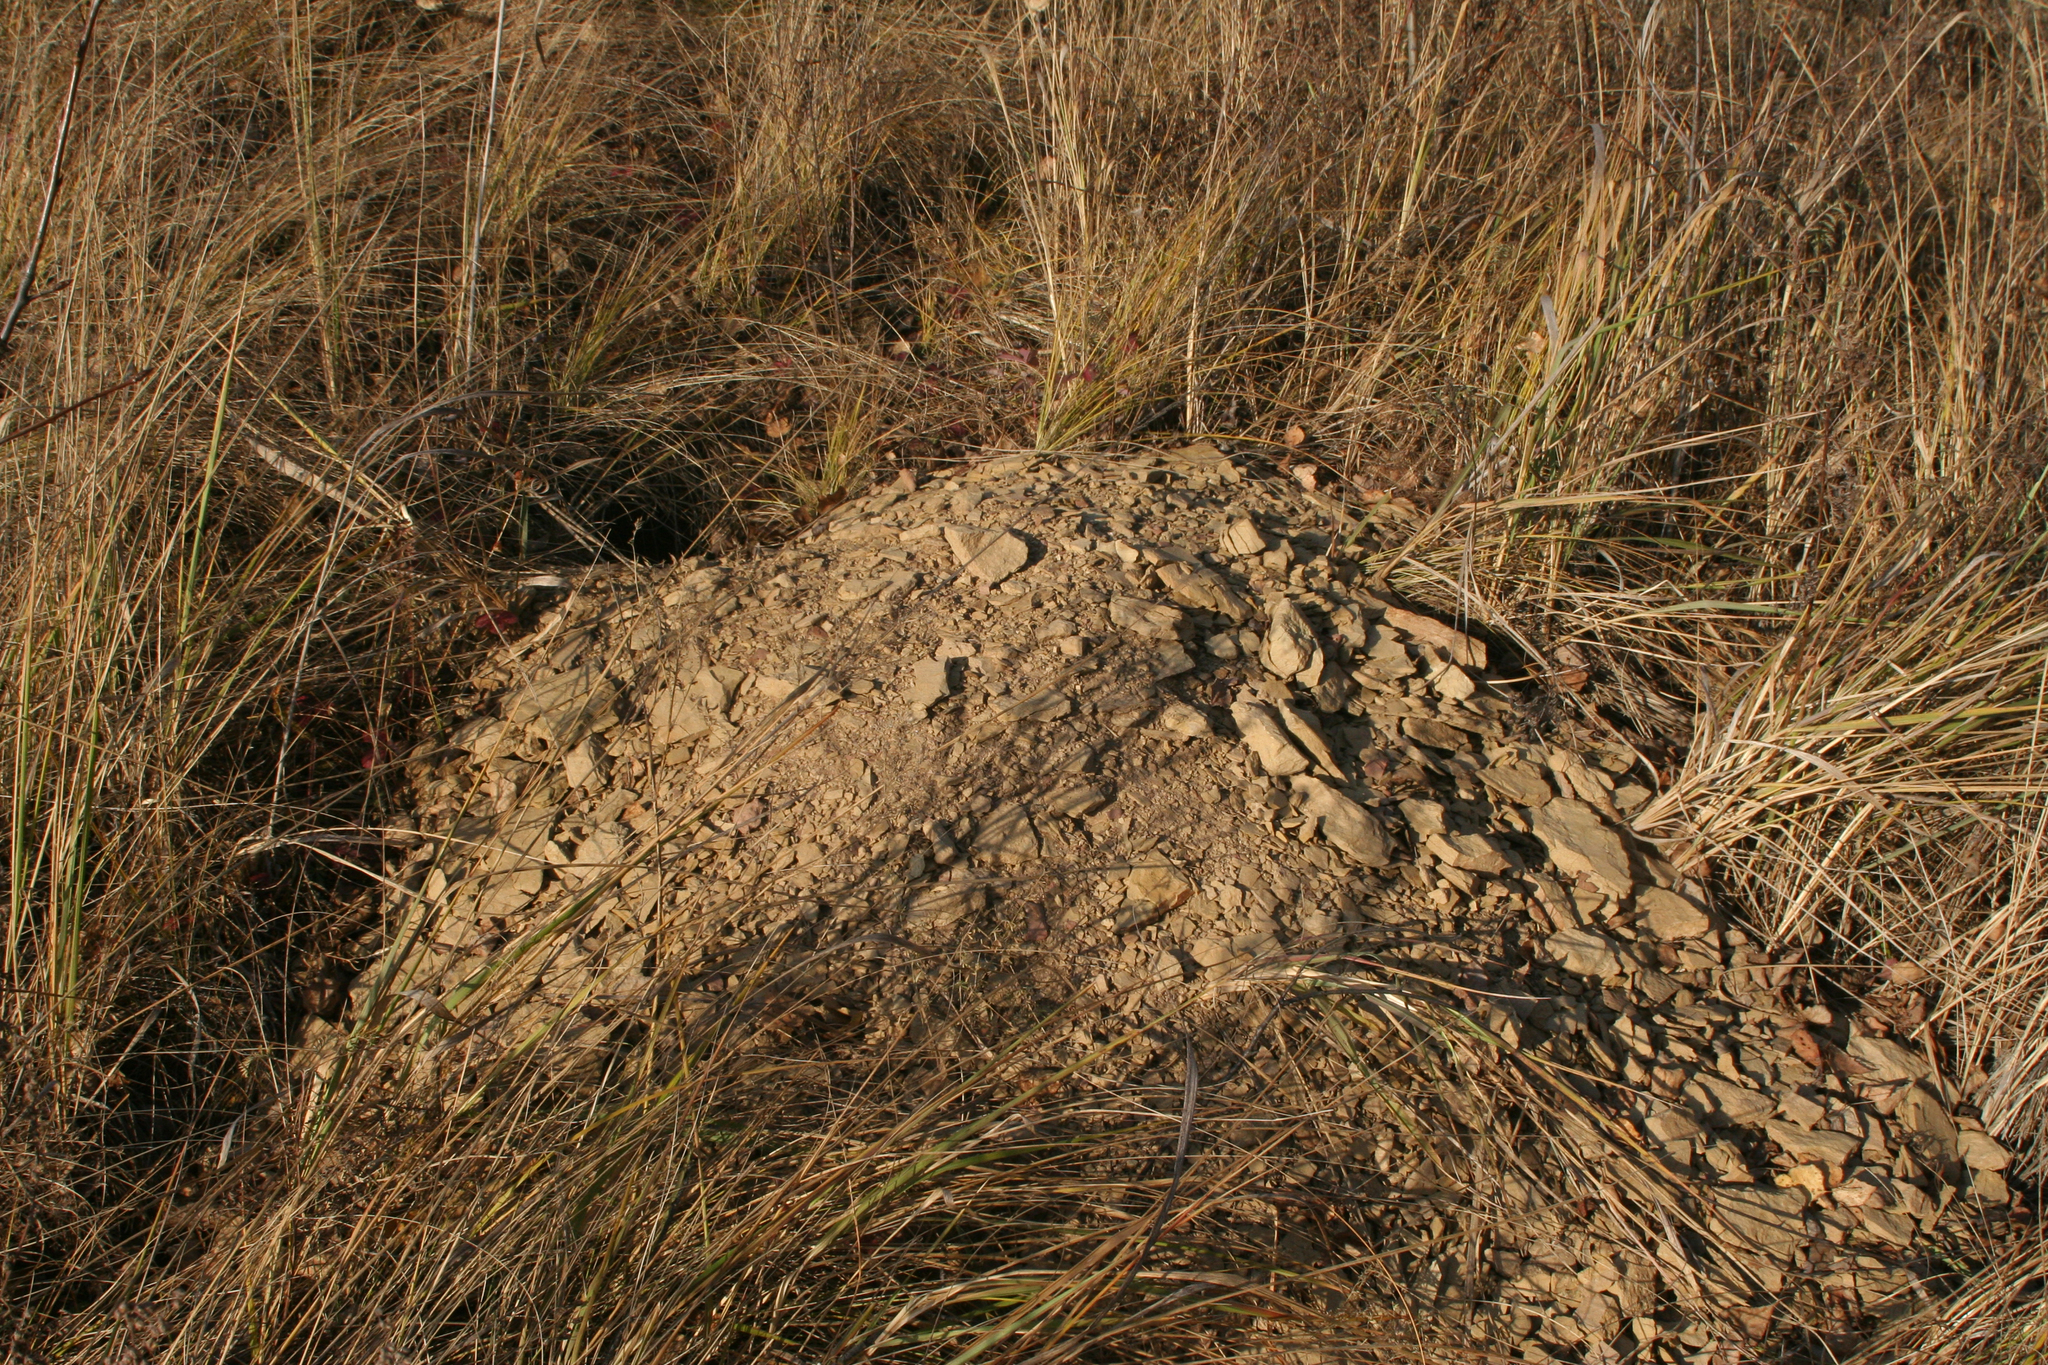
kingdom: Animalia
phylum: Chordata
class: Mammalia
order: Rodentia
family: Sciuridae
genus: Marmota
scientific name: Marmota kastschenkoi
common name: Forest steppe marmot
